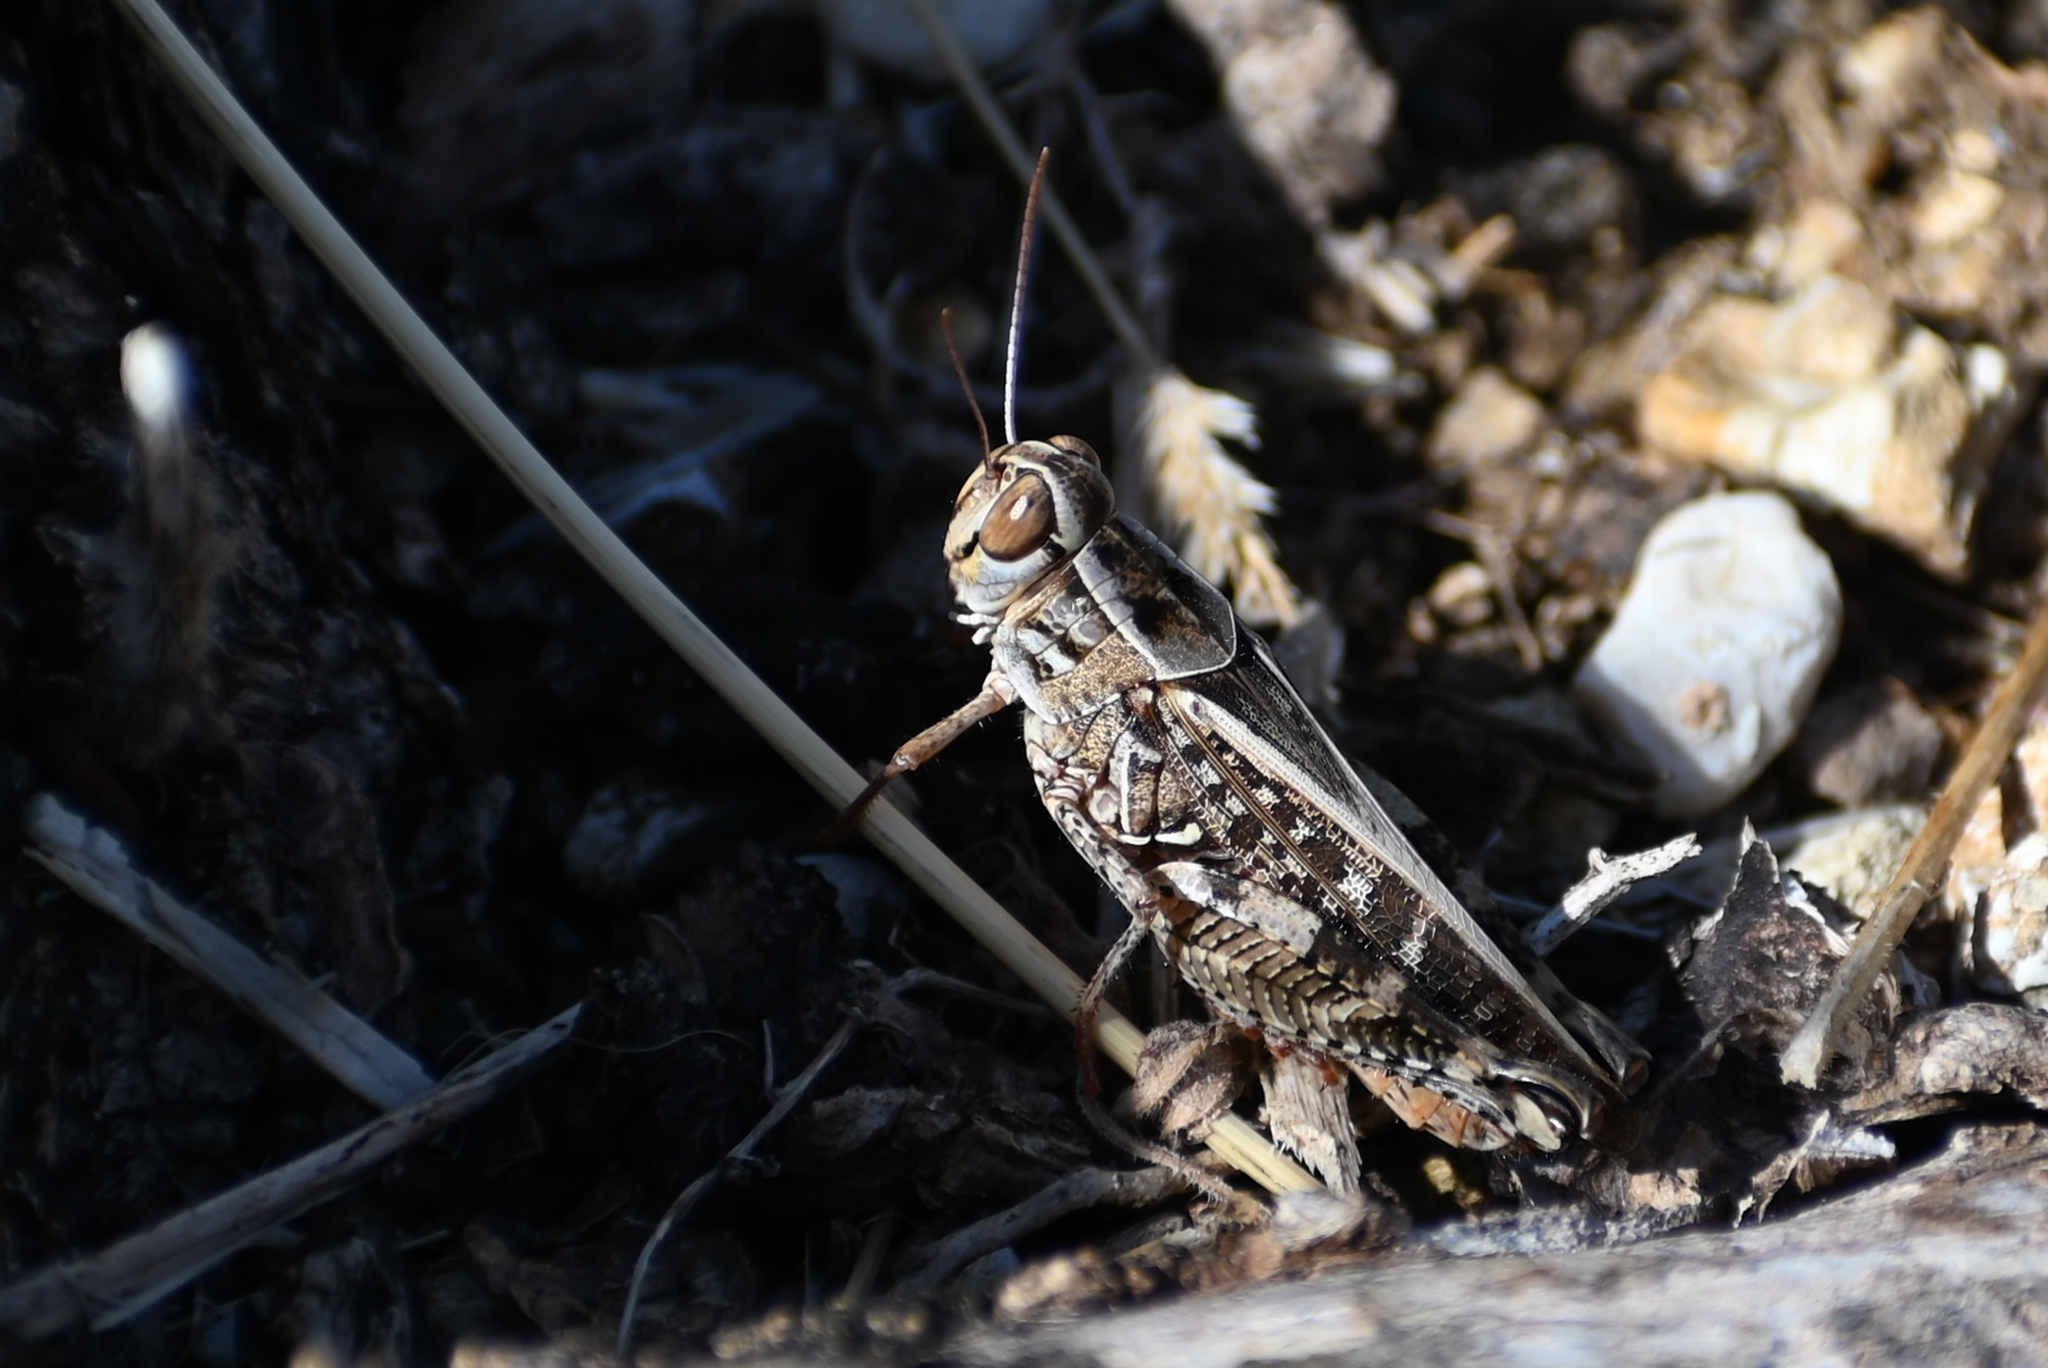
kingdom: Animalia
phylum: Arthropoda
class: Insecta
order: Orthoptera
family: Acrididae
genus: Calliptamus
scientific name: Calliptamus
